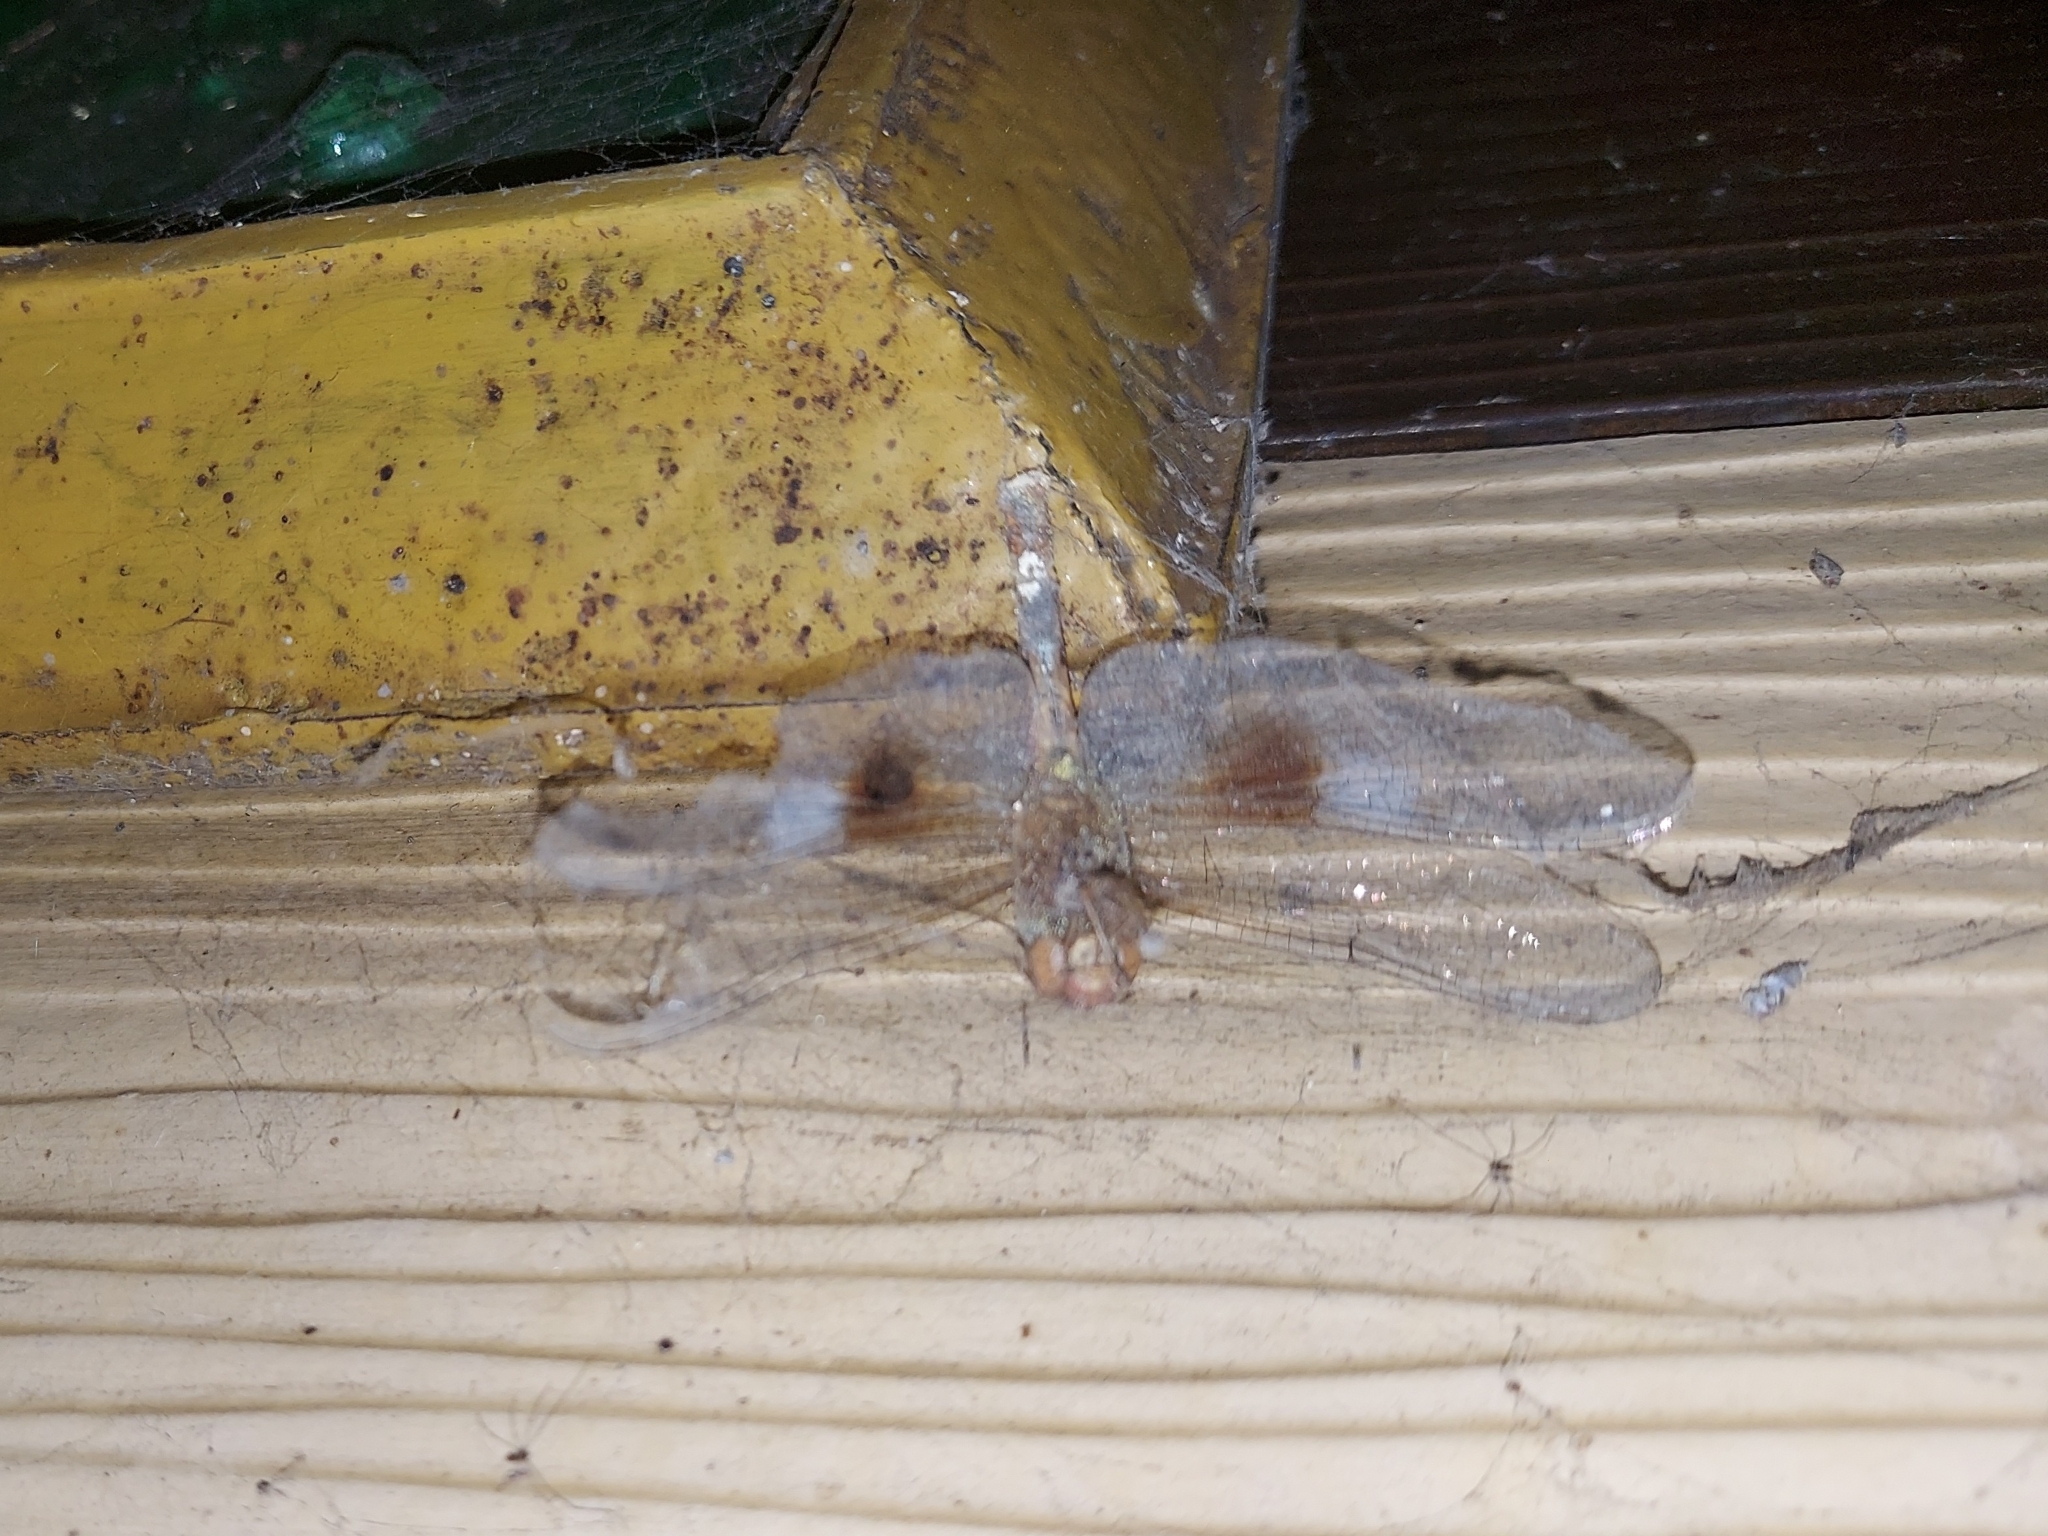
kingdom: Animalia
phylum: Arthropoda
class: Insecta
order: Odonata
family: Libellulidae
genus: Tholymis
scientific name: Tholymis tillarga
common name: Coral-tailed cloud wing
